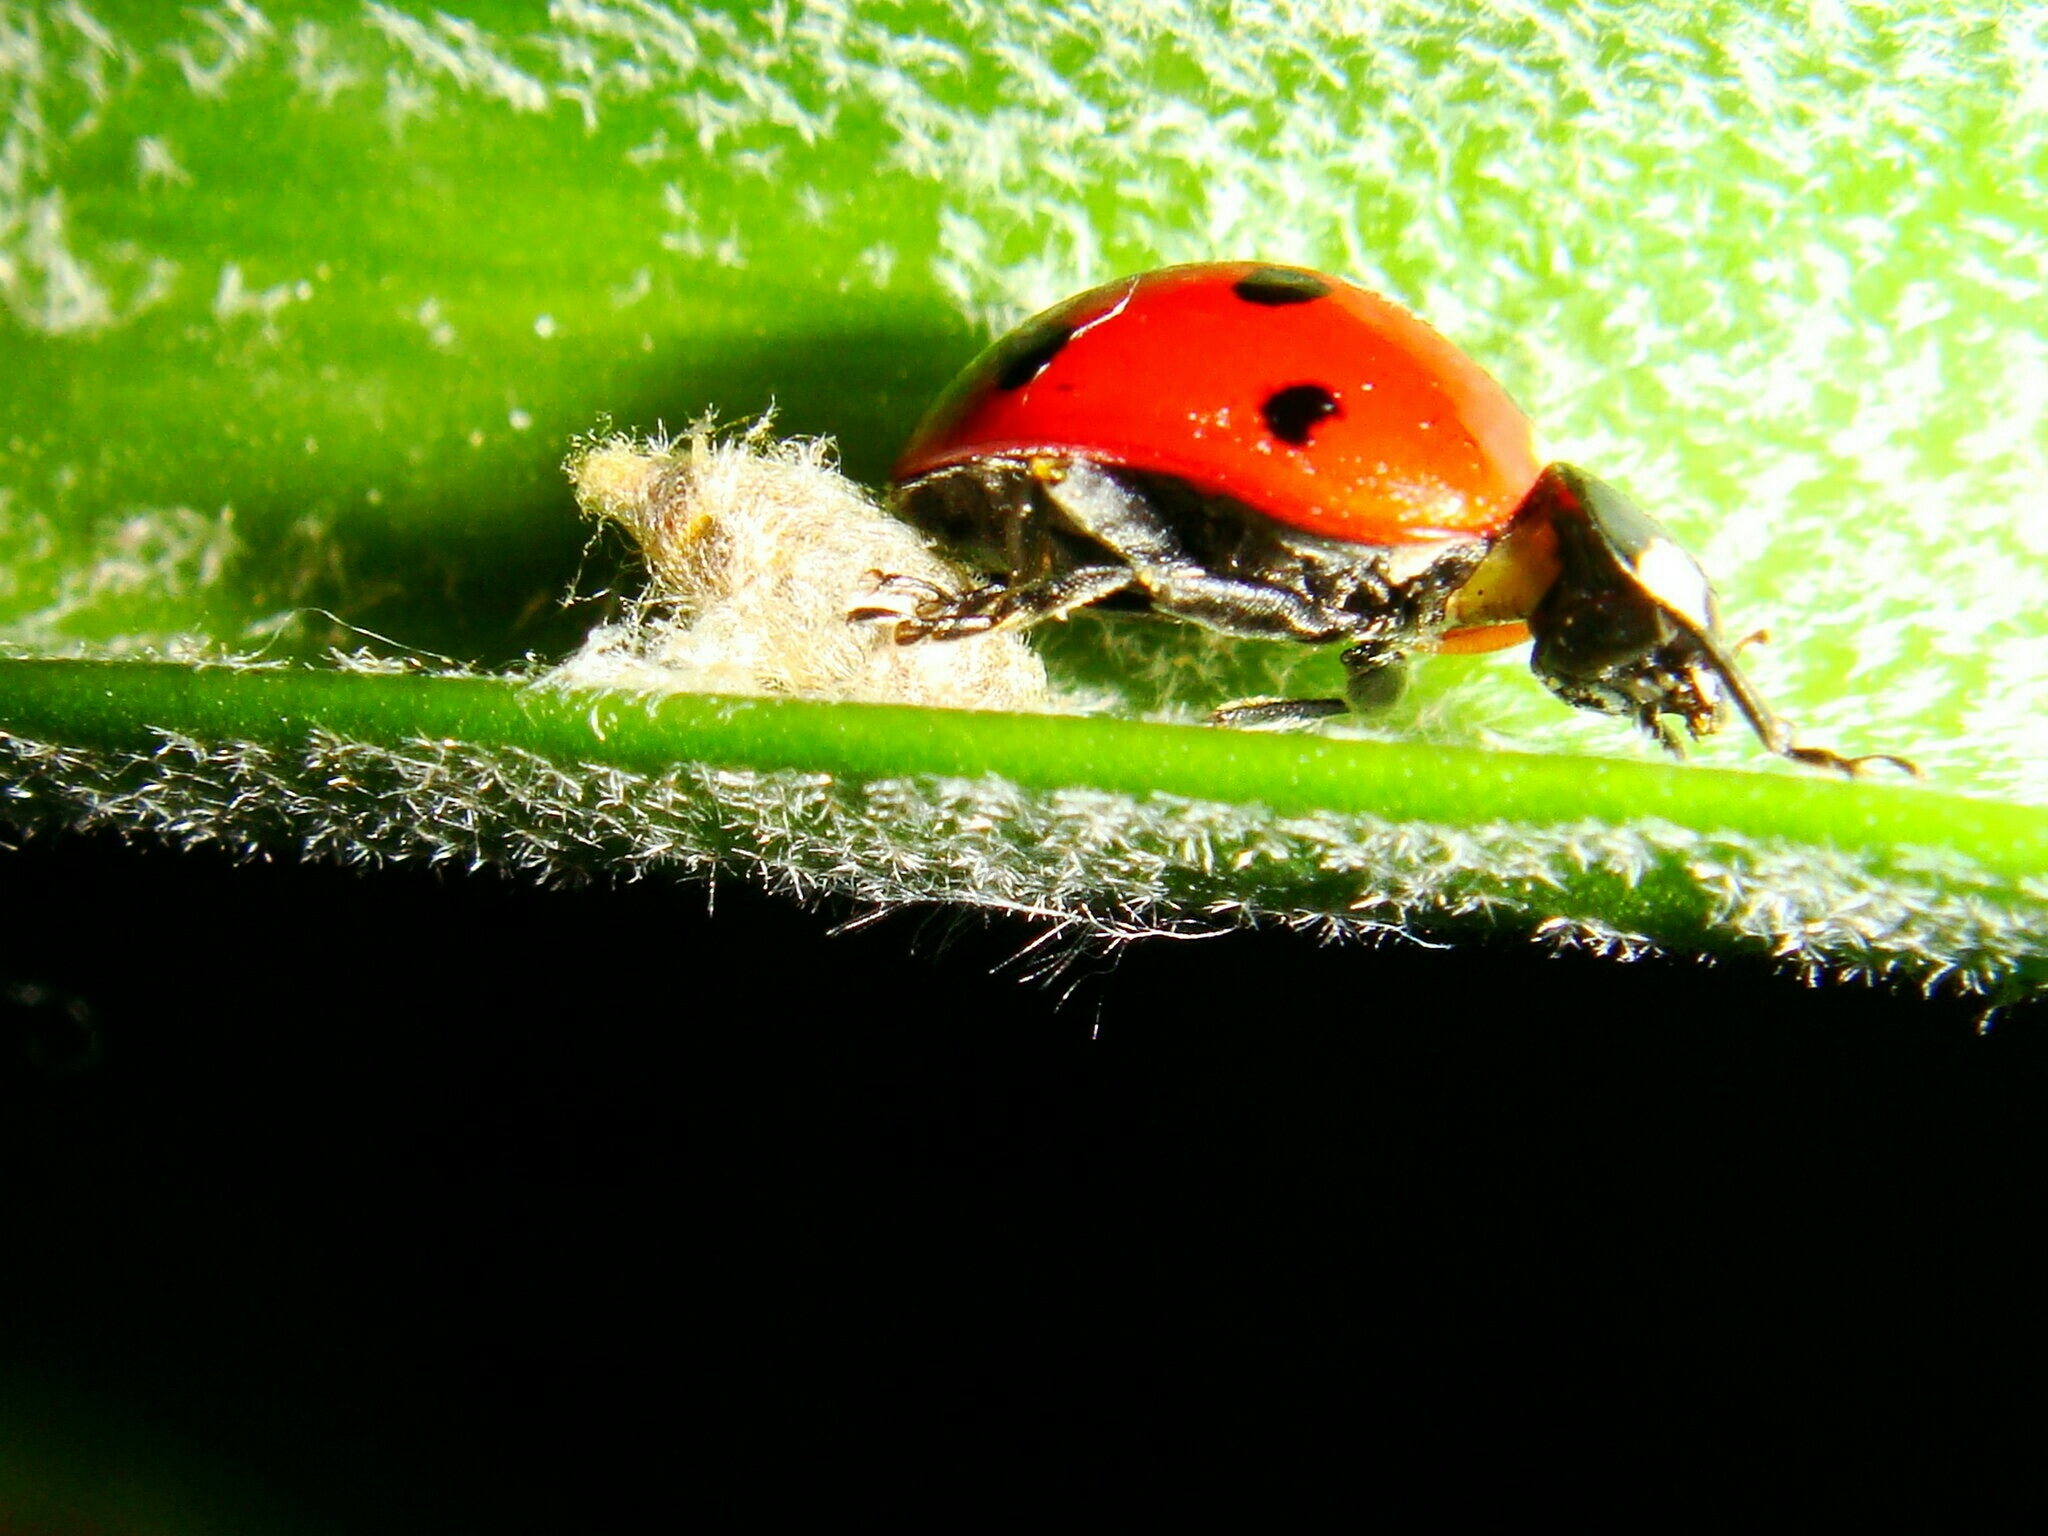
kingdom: Animalia
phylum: Arthropoda
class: Insecta
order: Coleoptera
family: Coccinellidae
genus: Coccinella
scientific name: Coccinella septempunctata
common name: Sevenspotted lady beetle
